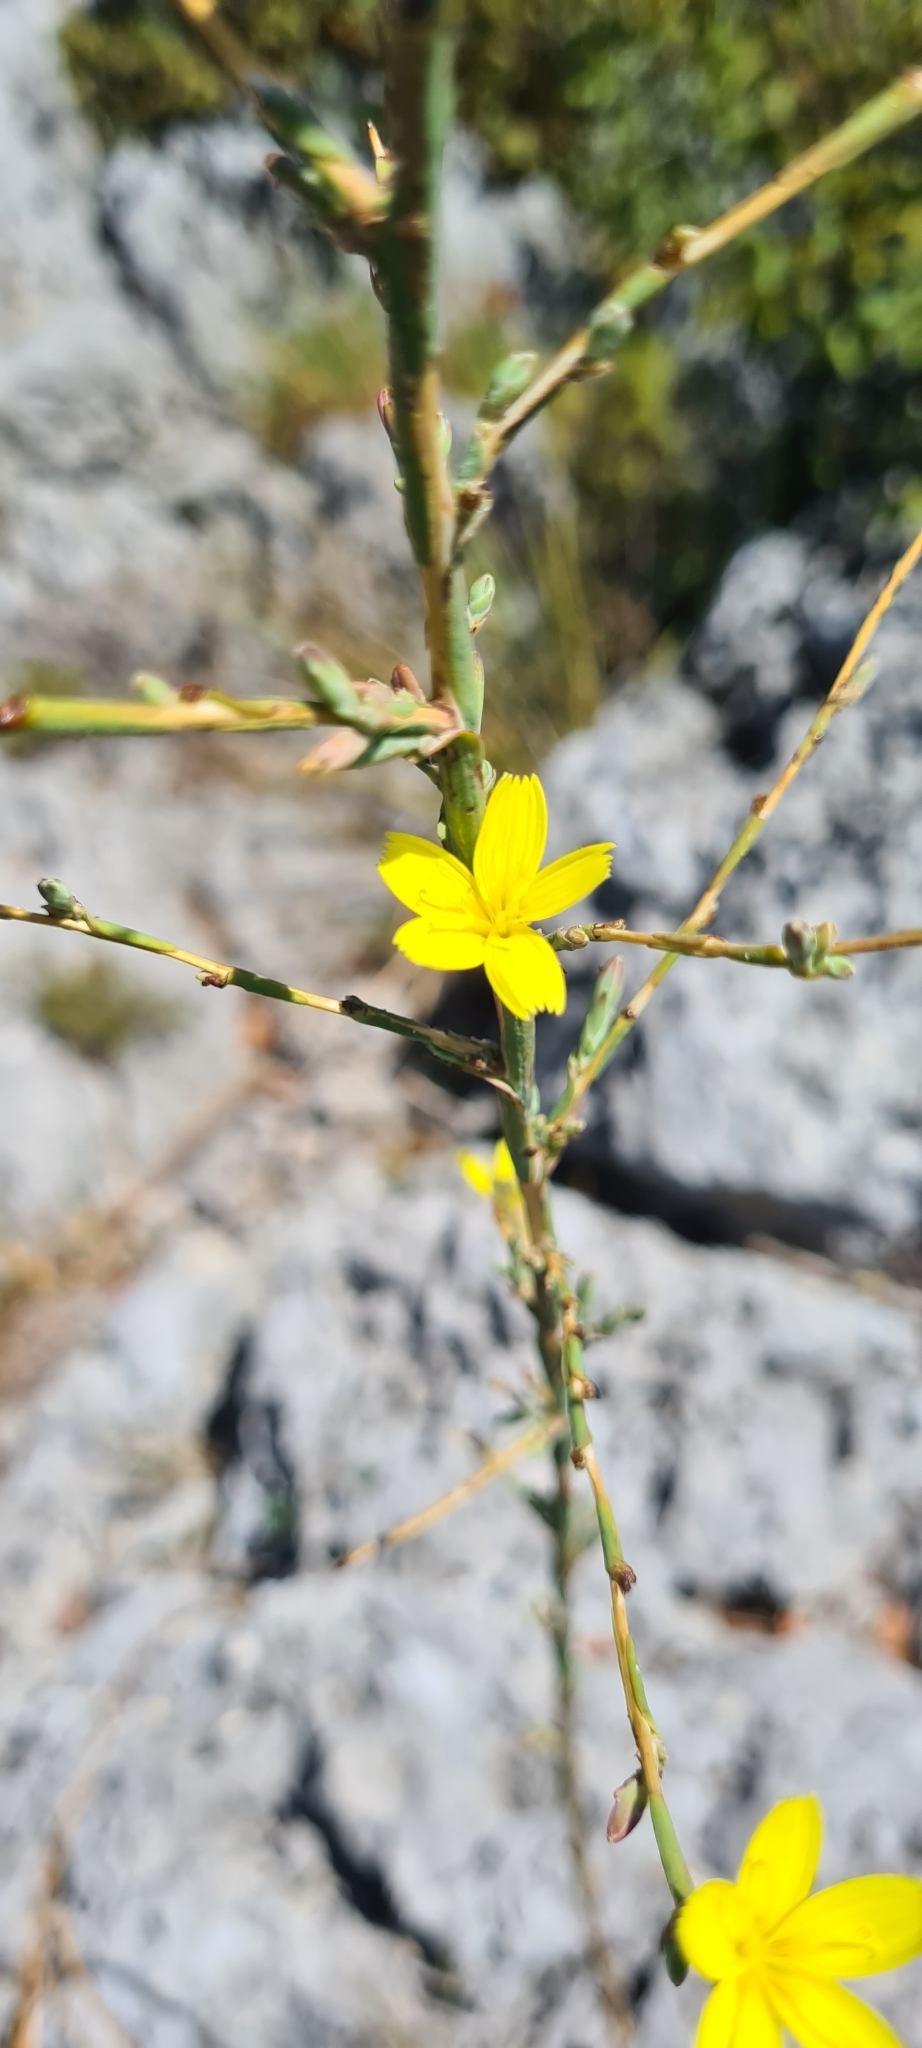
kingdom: Plantae
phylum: Tracheophyta
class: Magnoliopsida
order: Asterales
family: Asteraceae
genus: Lactuca
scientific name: Lactuca viminea
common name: Pliant lettuce
